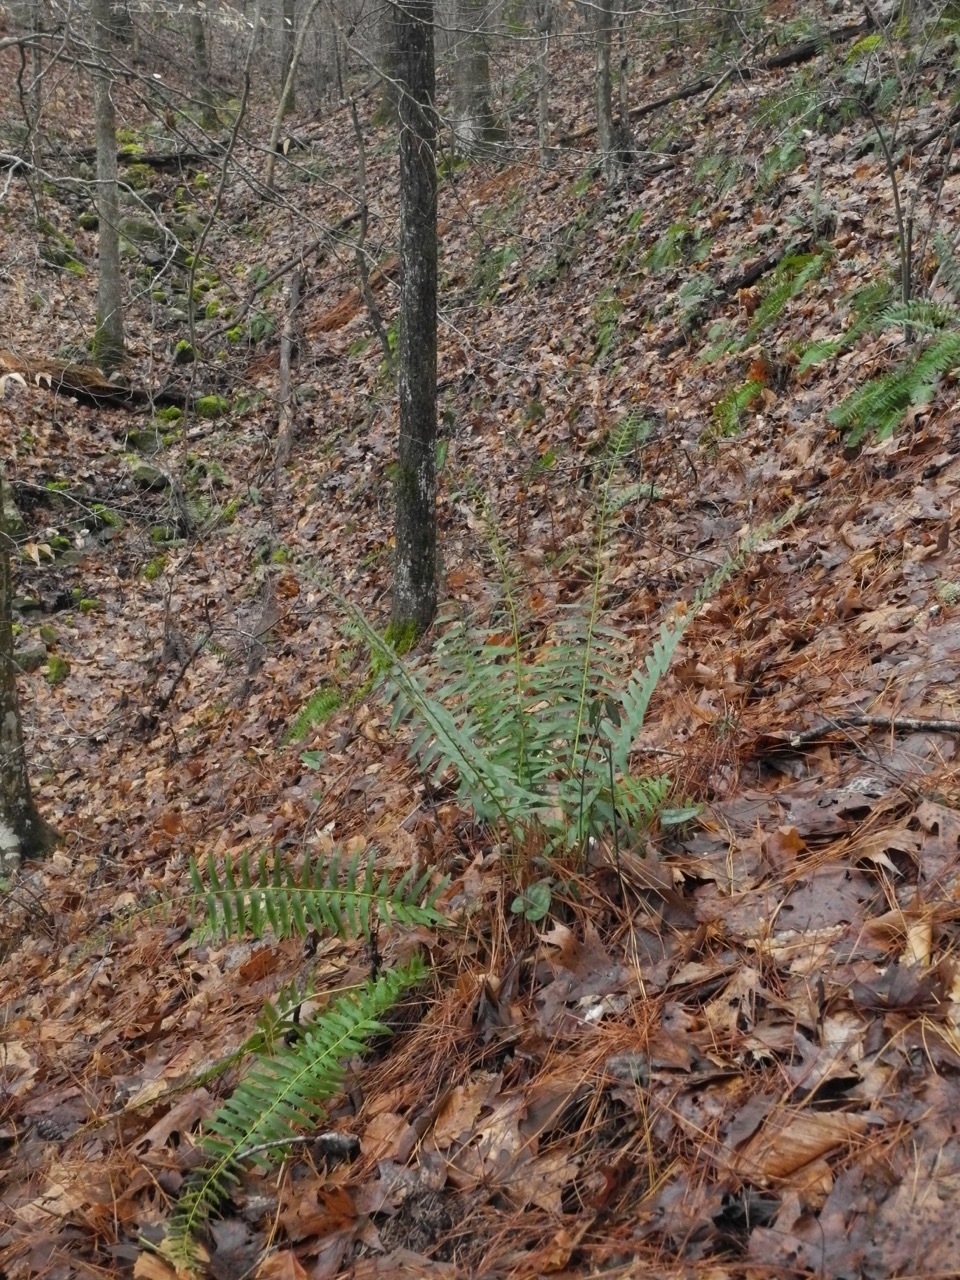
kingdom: Plantae
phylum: Tracheophyta
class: Polypodiopsida
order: Polypodiales
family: Dryopteridaceae
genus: Polystichum
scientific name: Polystichum acrostichoides
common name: Christmas fern
